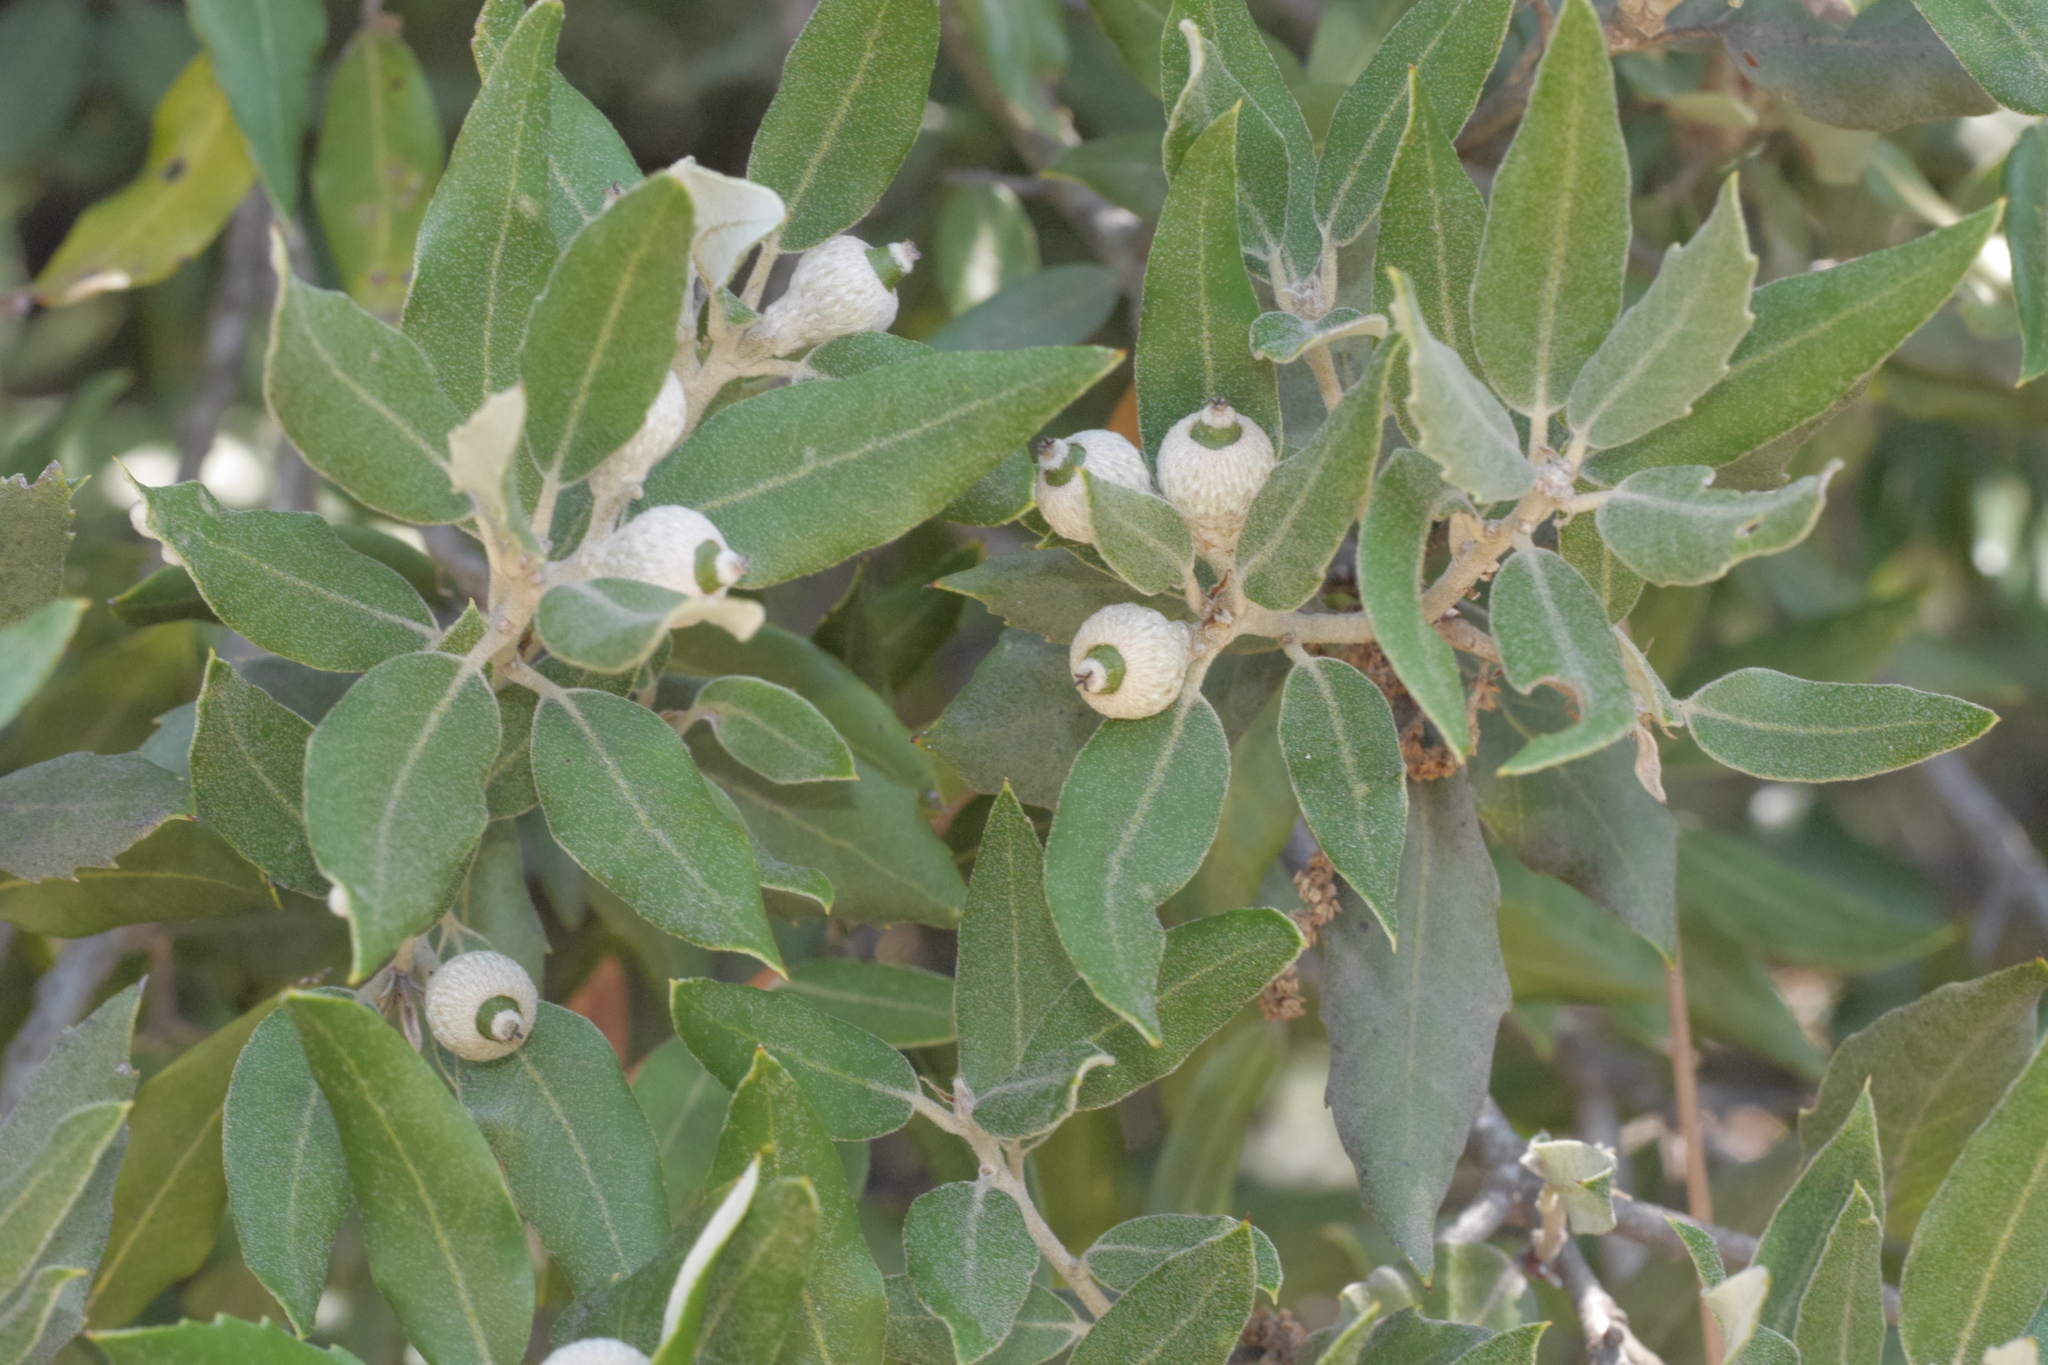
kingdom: Plantae
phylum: Tracheophyta
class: Magnoliopsida
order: Fagales
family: Fagaceae
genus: Quercus
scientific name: Quercus ilex
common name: Evergreen oak
